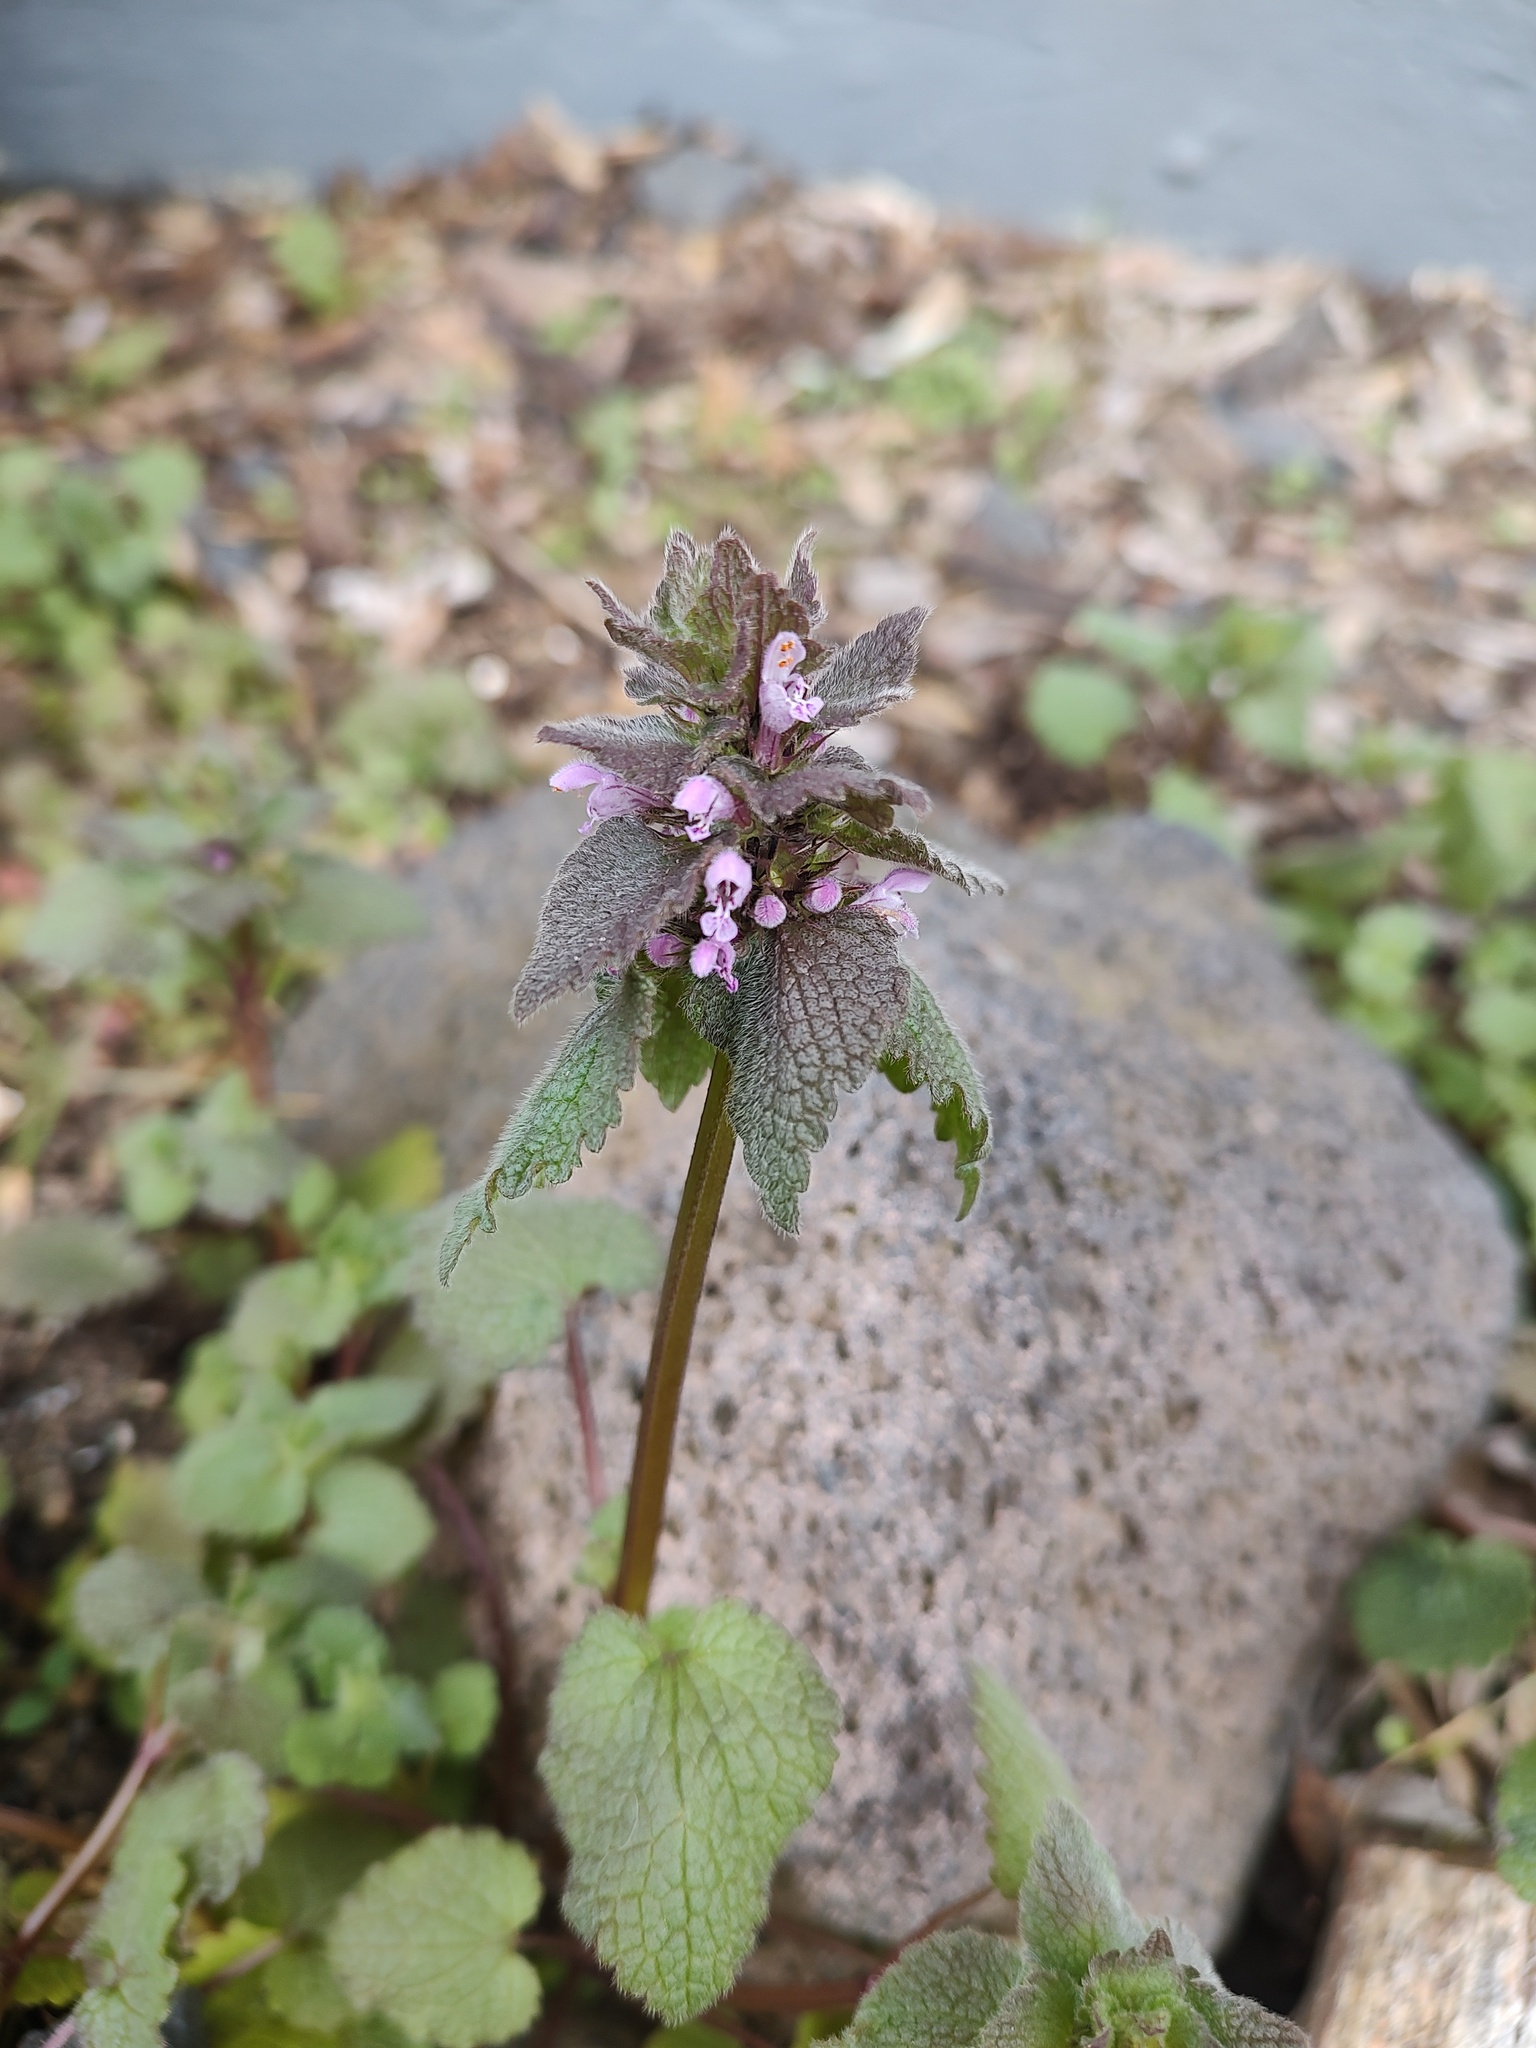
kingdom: Plantae
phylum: Tracheophyta
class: Magnoliopsida
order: Lamiales
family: Lamiaceae
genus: Lamium
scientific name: Lamium purpureum
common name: Red dead-nettle
